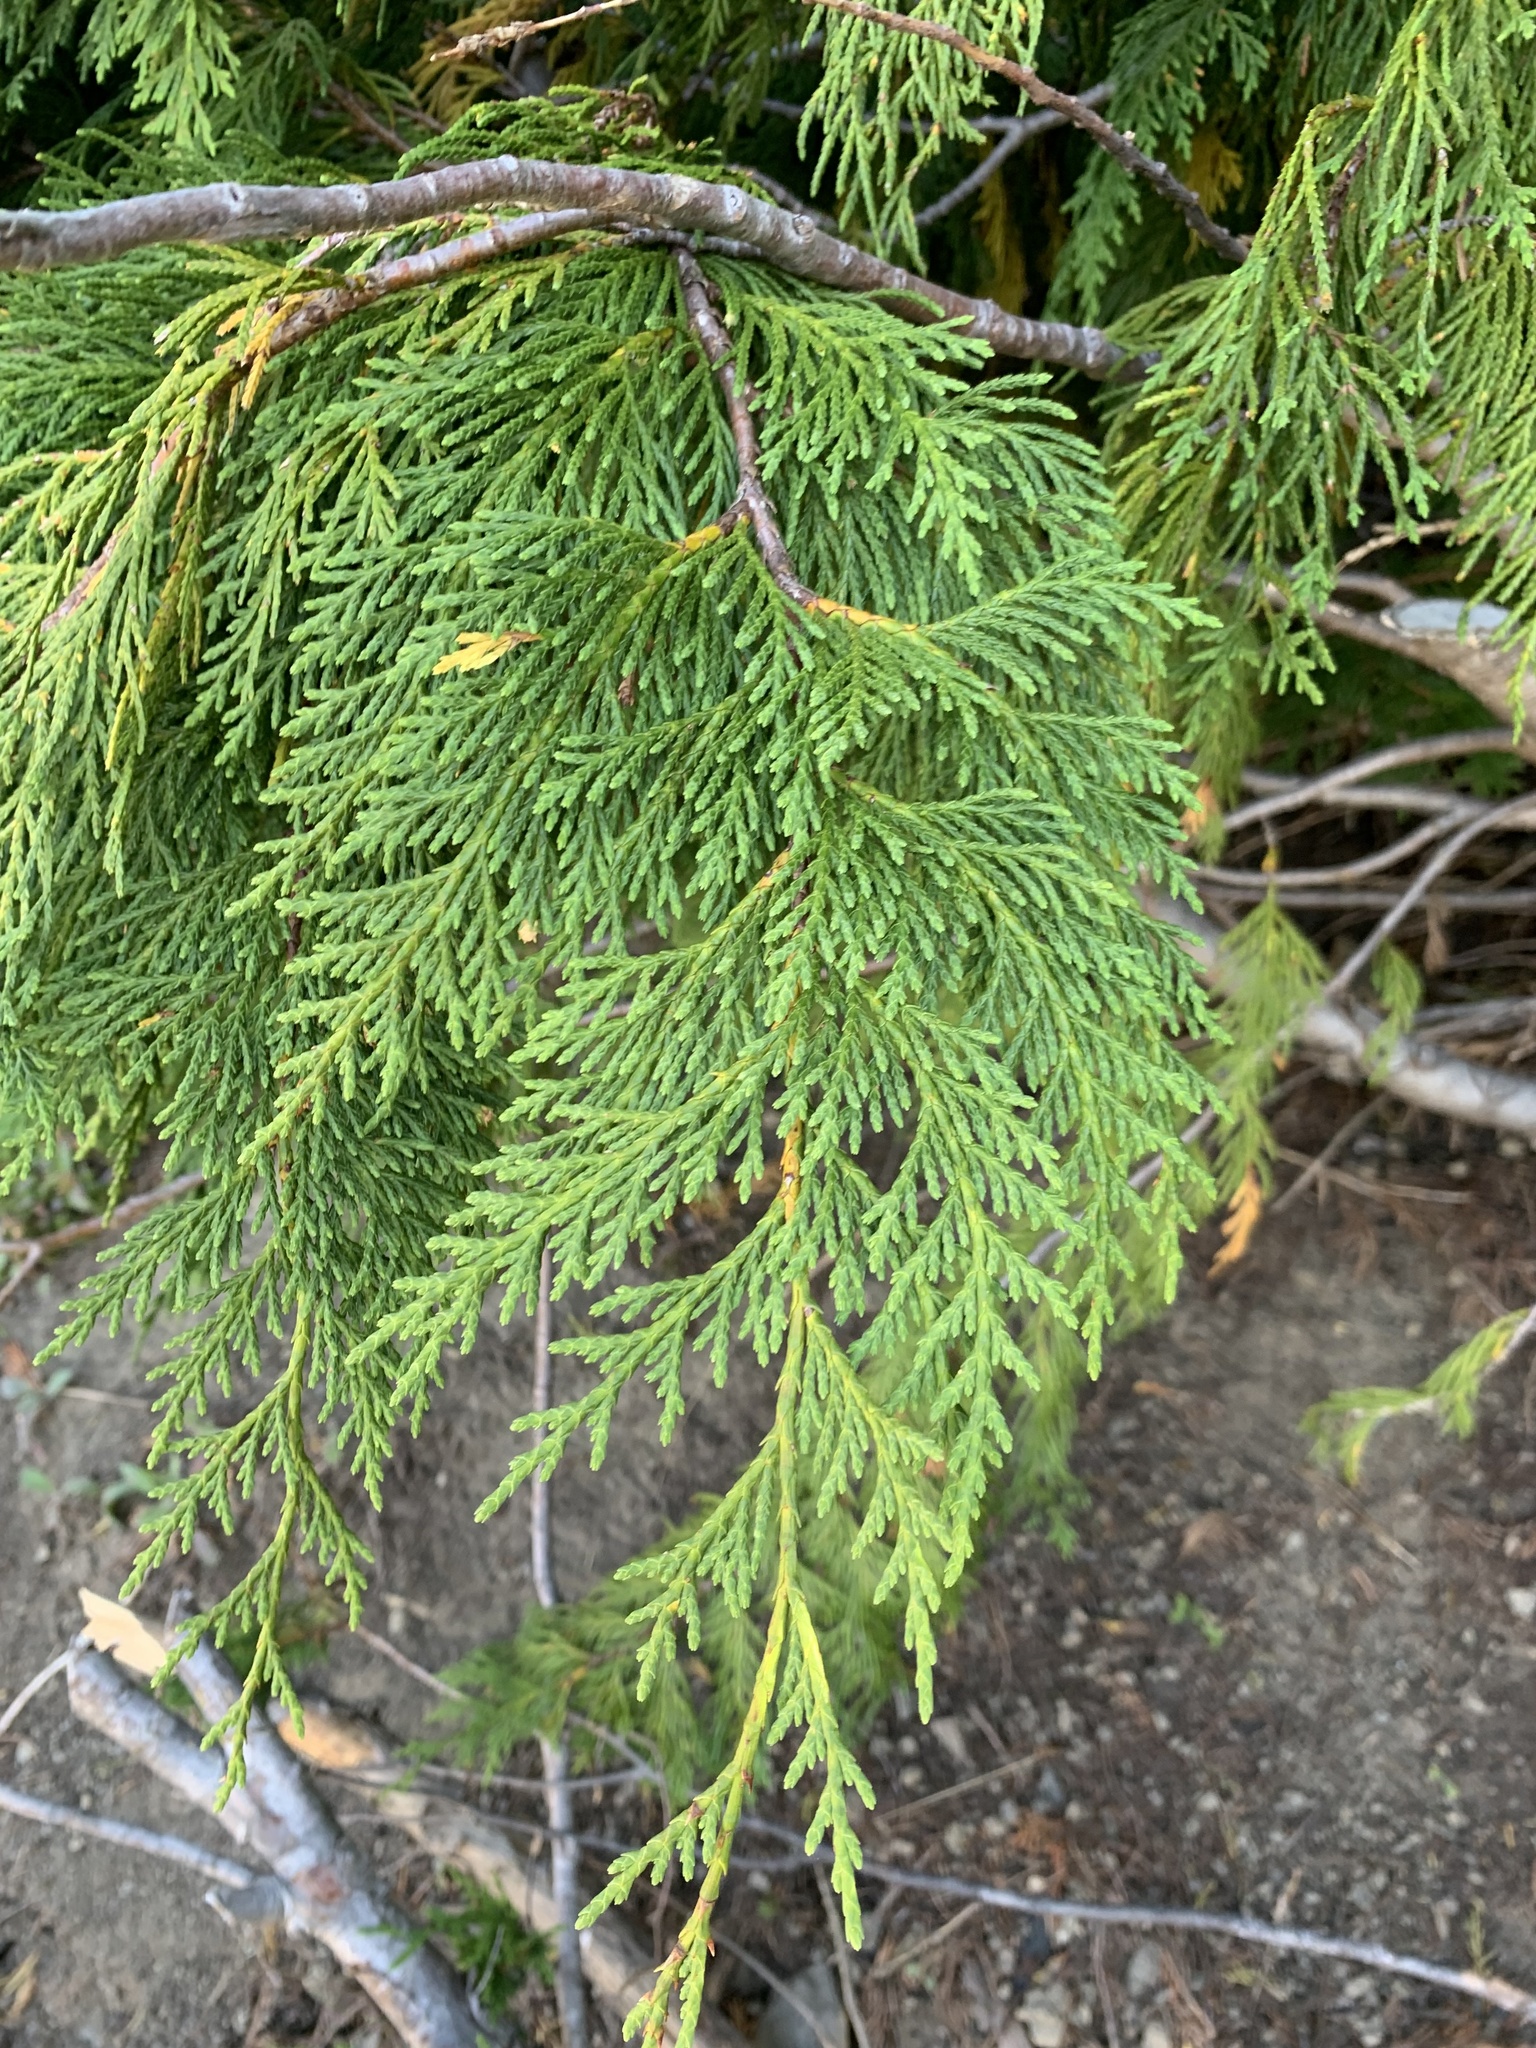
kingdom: Plantae
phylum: Tracheophyta
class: Pinopsida
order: Pinales
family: Cupressaceae
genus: Xanthocyparis
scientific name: Xanthocyparis nootkatensis
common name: Nootka cypress
